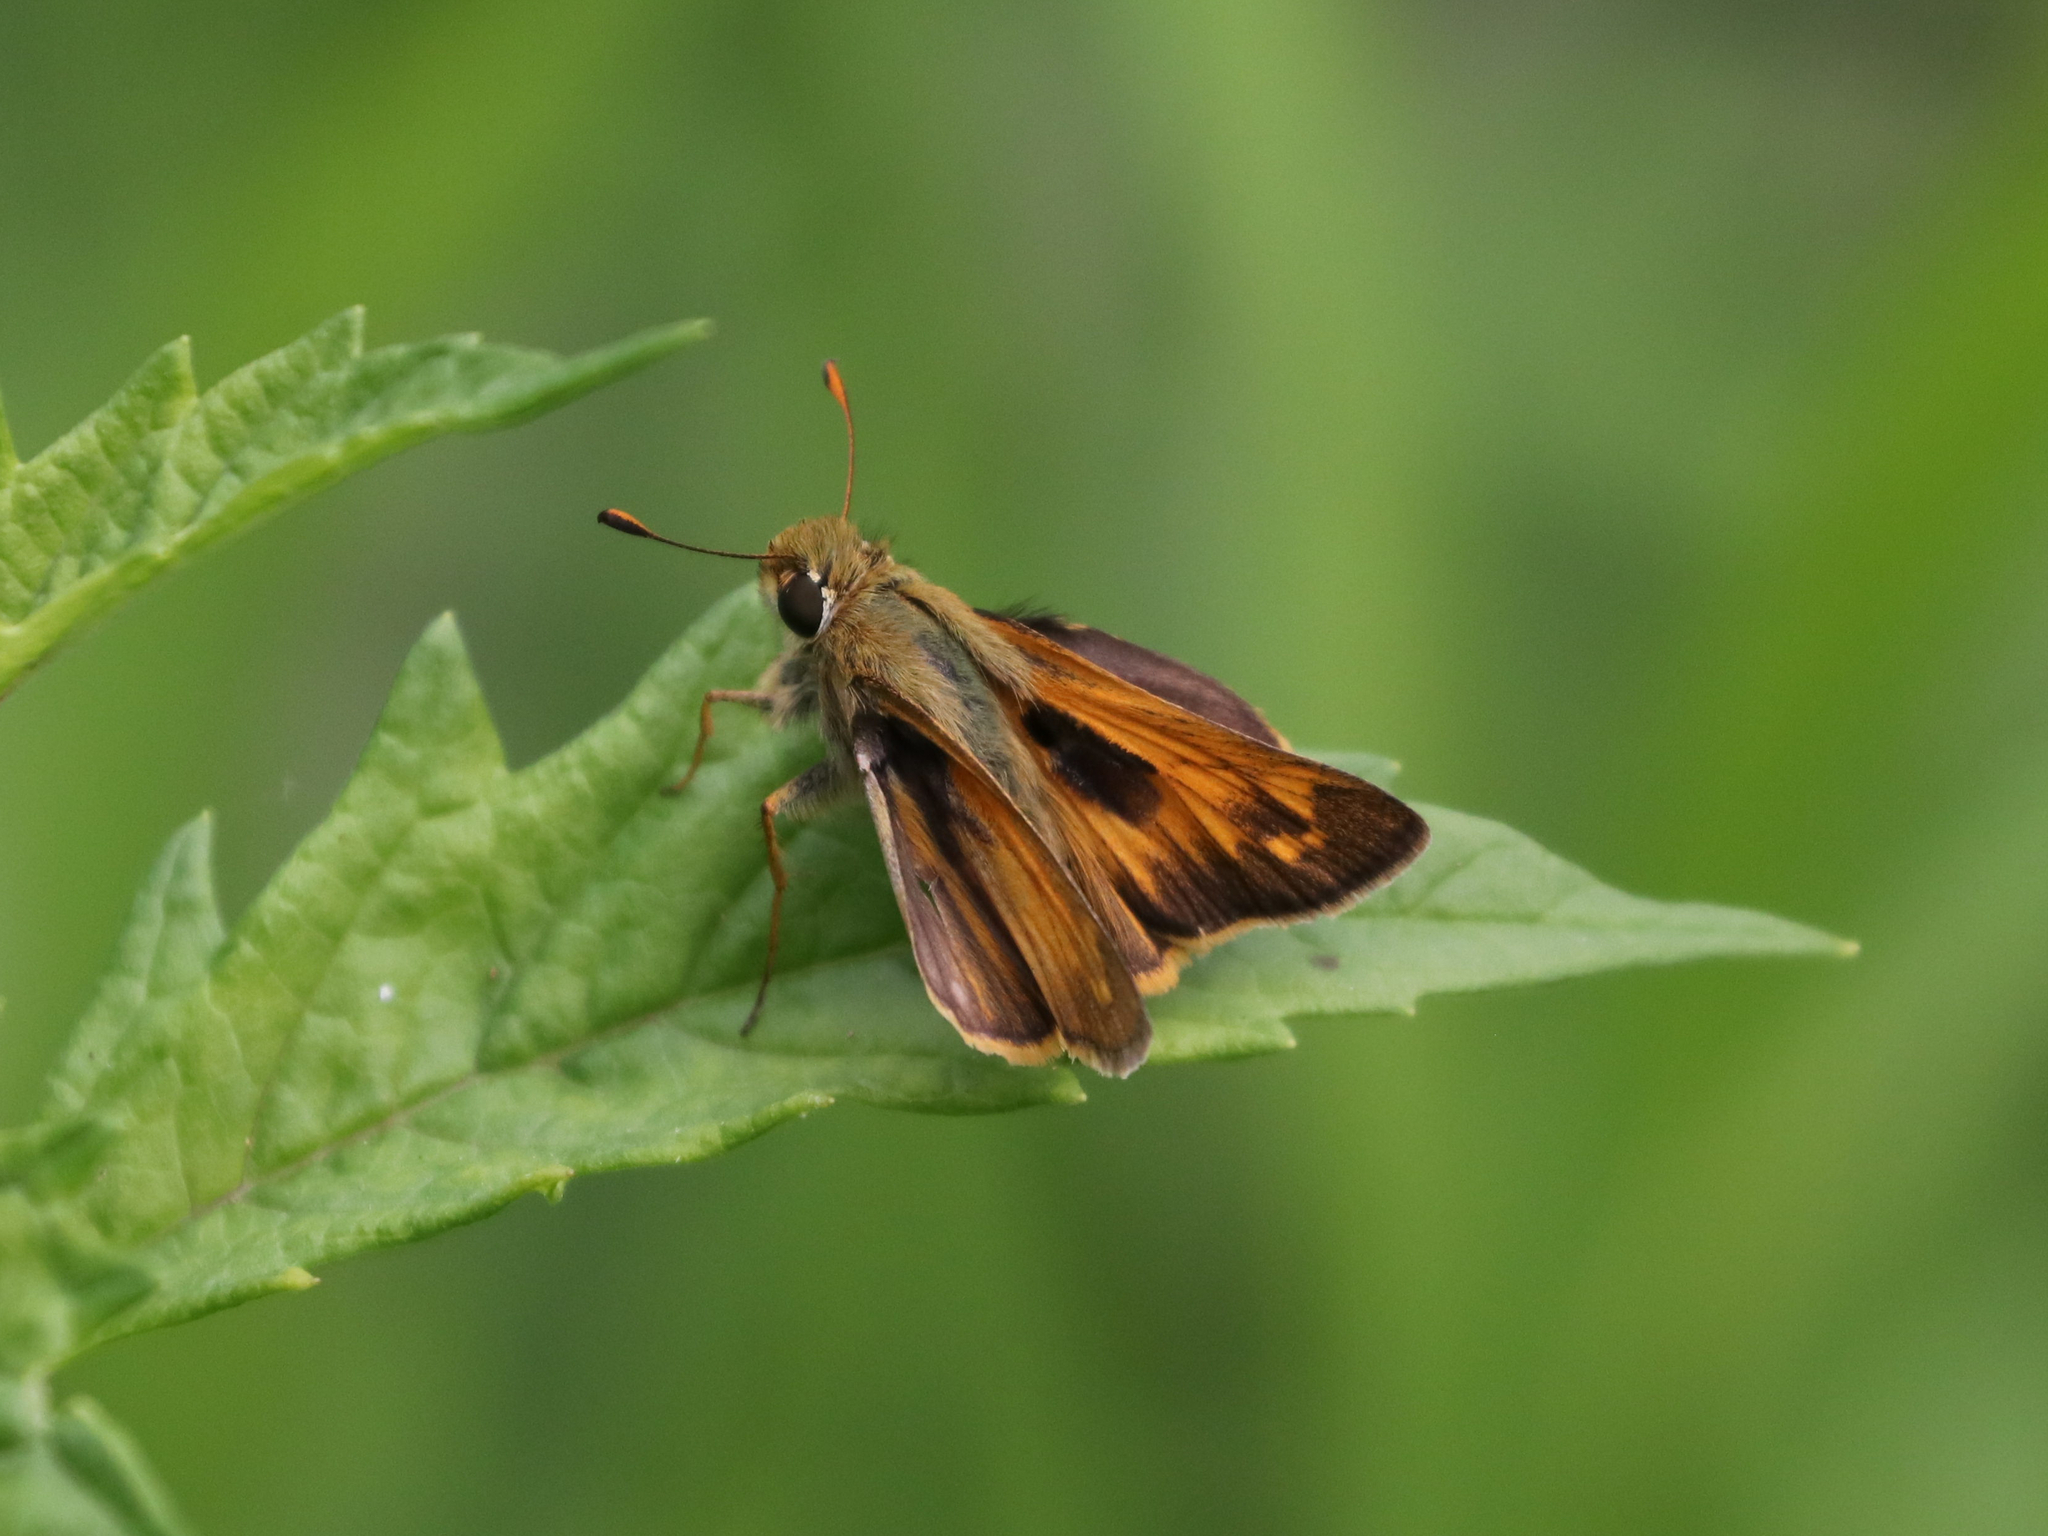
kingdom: Animalia
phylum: Arthropoda
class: Insecta
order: Lepidoptera
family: Hesperiidae
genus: Atalopedes
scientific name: Atalopedes
